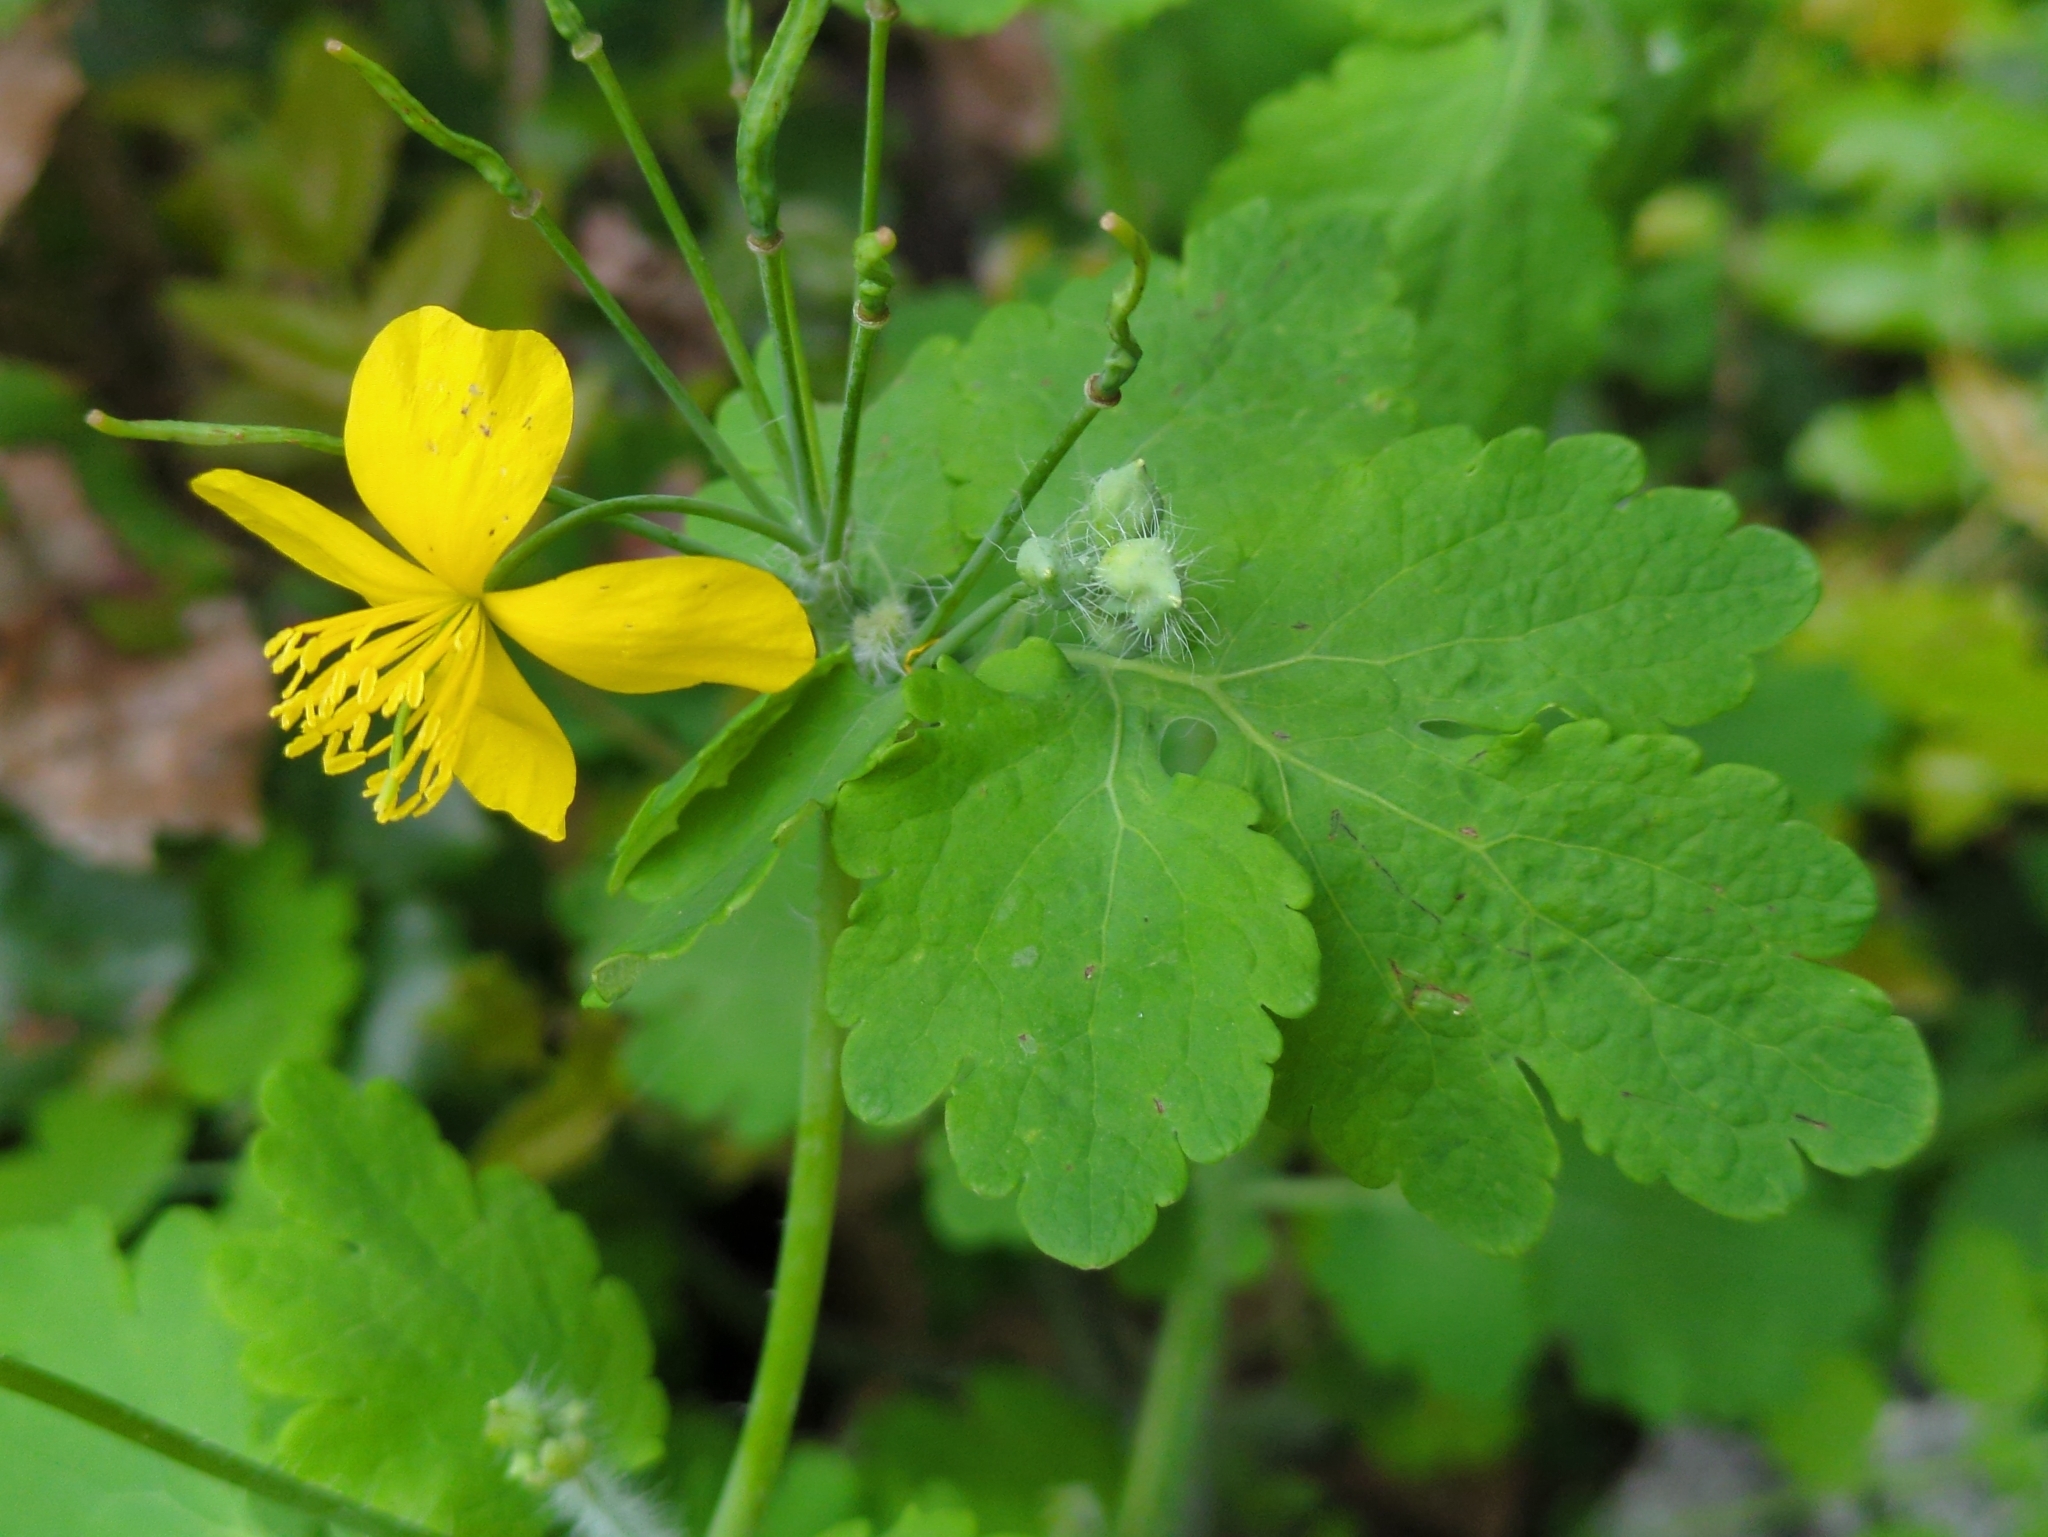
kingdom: Plantae
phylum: Tracheophyta
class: Magnoliopsida
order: Ranunculales
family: Papaveraceae
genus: Chelidonium
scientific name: Chelidonium majus
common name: Greater celandine
